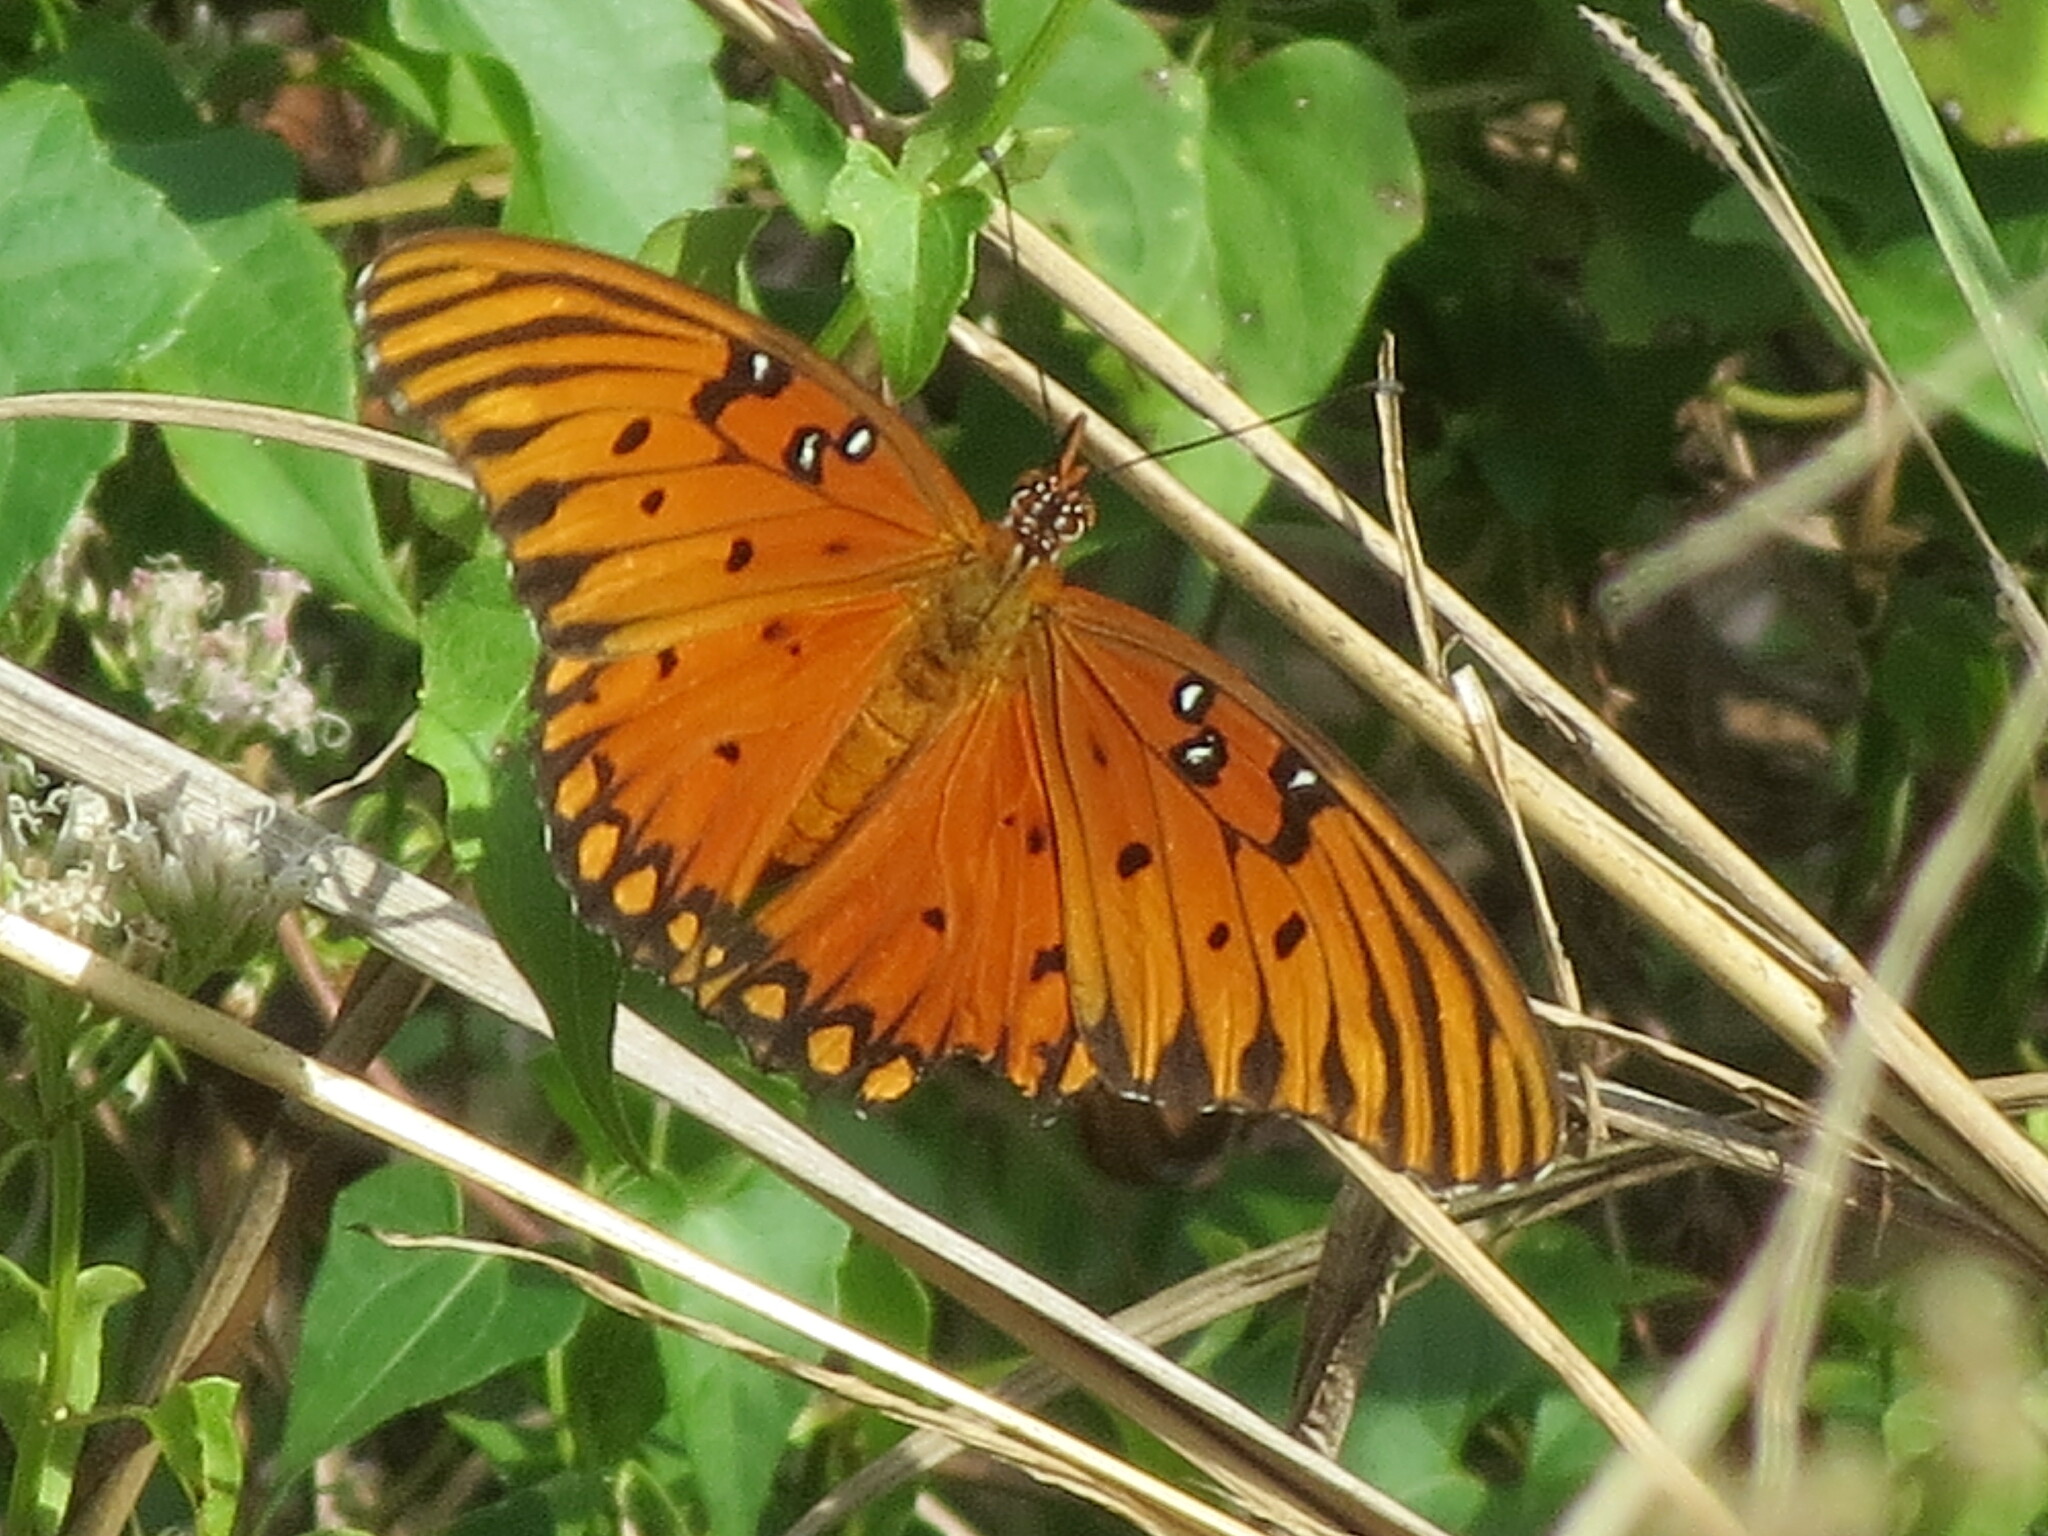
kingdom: Animalia
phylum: Arthropoda
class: Insecta
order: Lepidoptera
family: Nymphalidae
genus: Dione
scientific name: Dione vanillae
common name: Gulf fritillary
